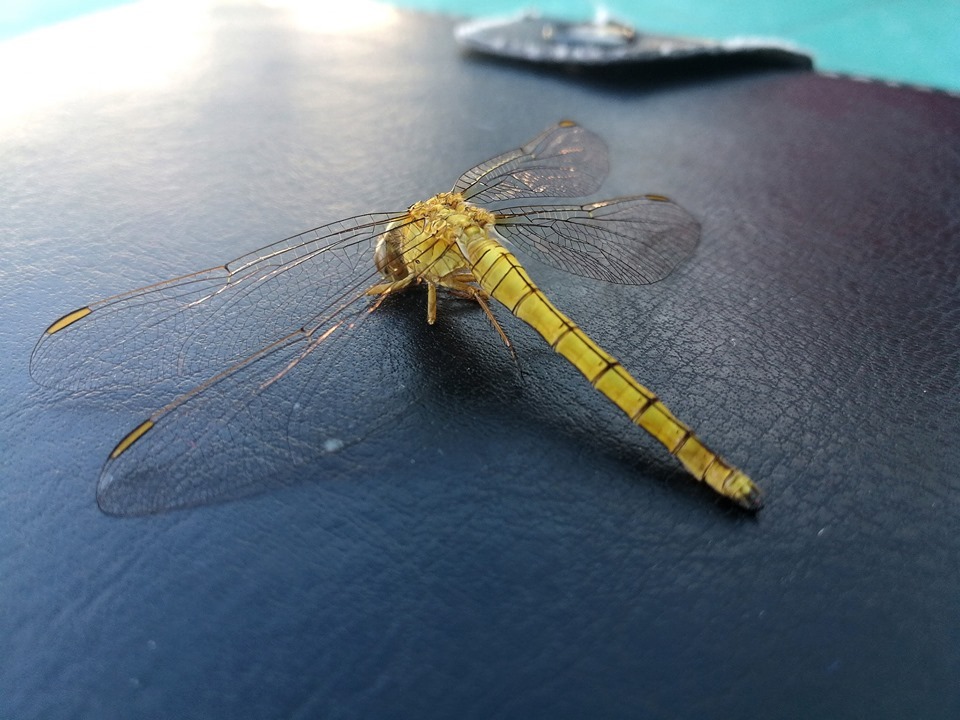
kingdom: Animalia
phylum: Arthropoda
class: Insecta
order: Odonata
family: Libellulidae
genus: Orthetrum
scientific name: Orthetrum coerulescens
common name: Keeled skimmer
